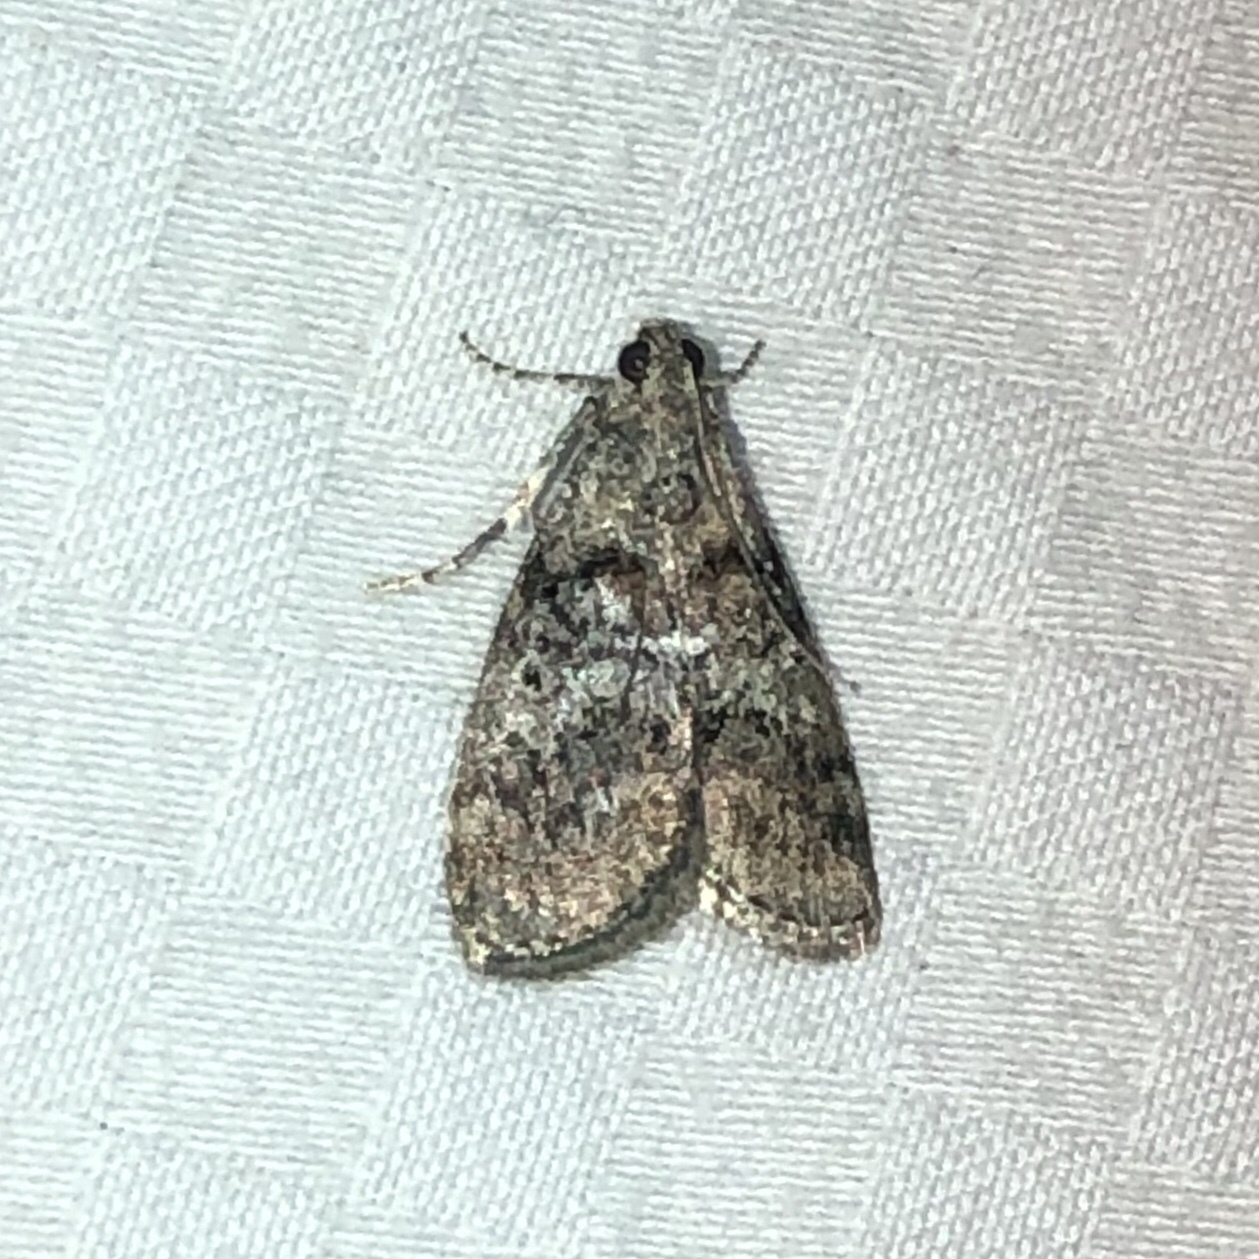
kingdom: Animalia
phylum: Arthropoda
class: Insecta
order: Lepidoptera
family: Pyralidae
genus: Pococera
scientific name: Pococera asperatella
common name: Maple webworm moth
